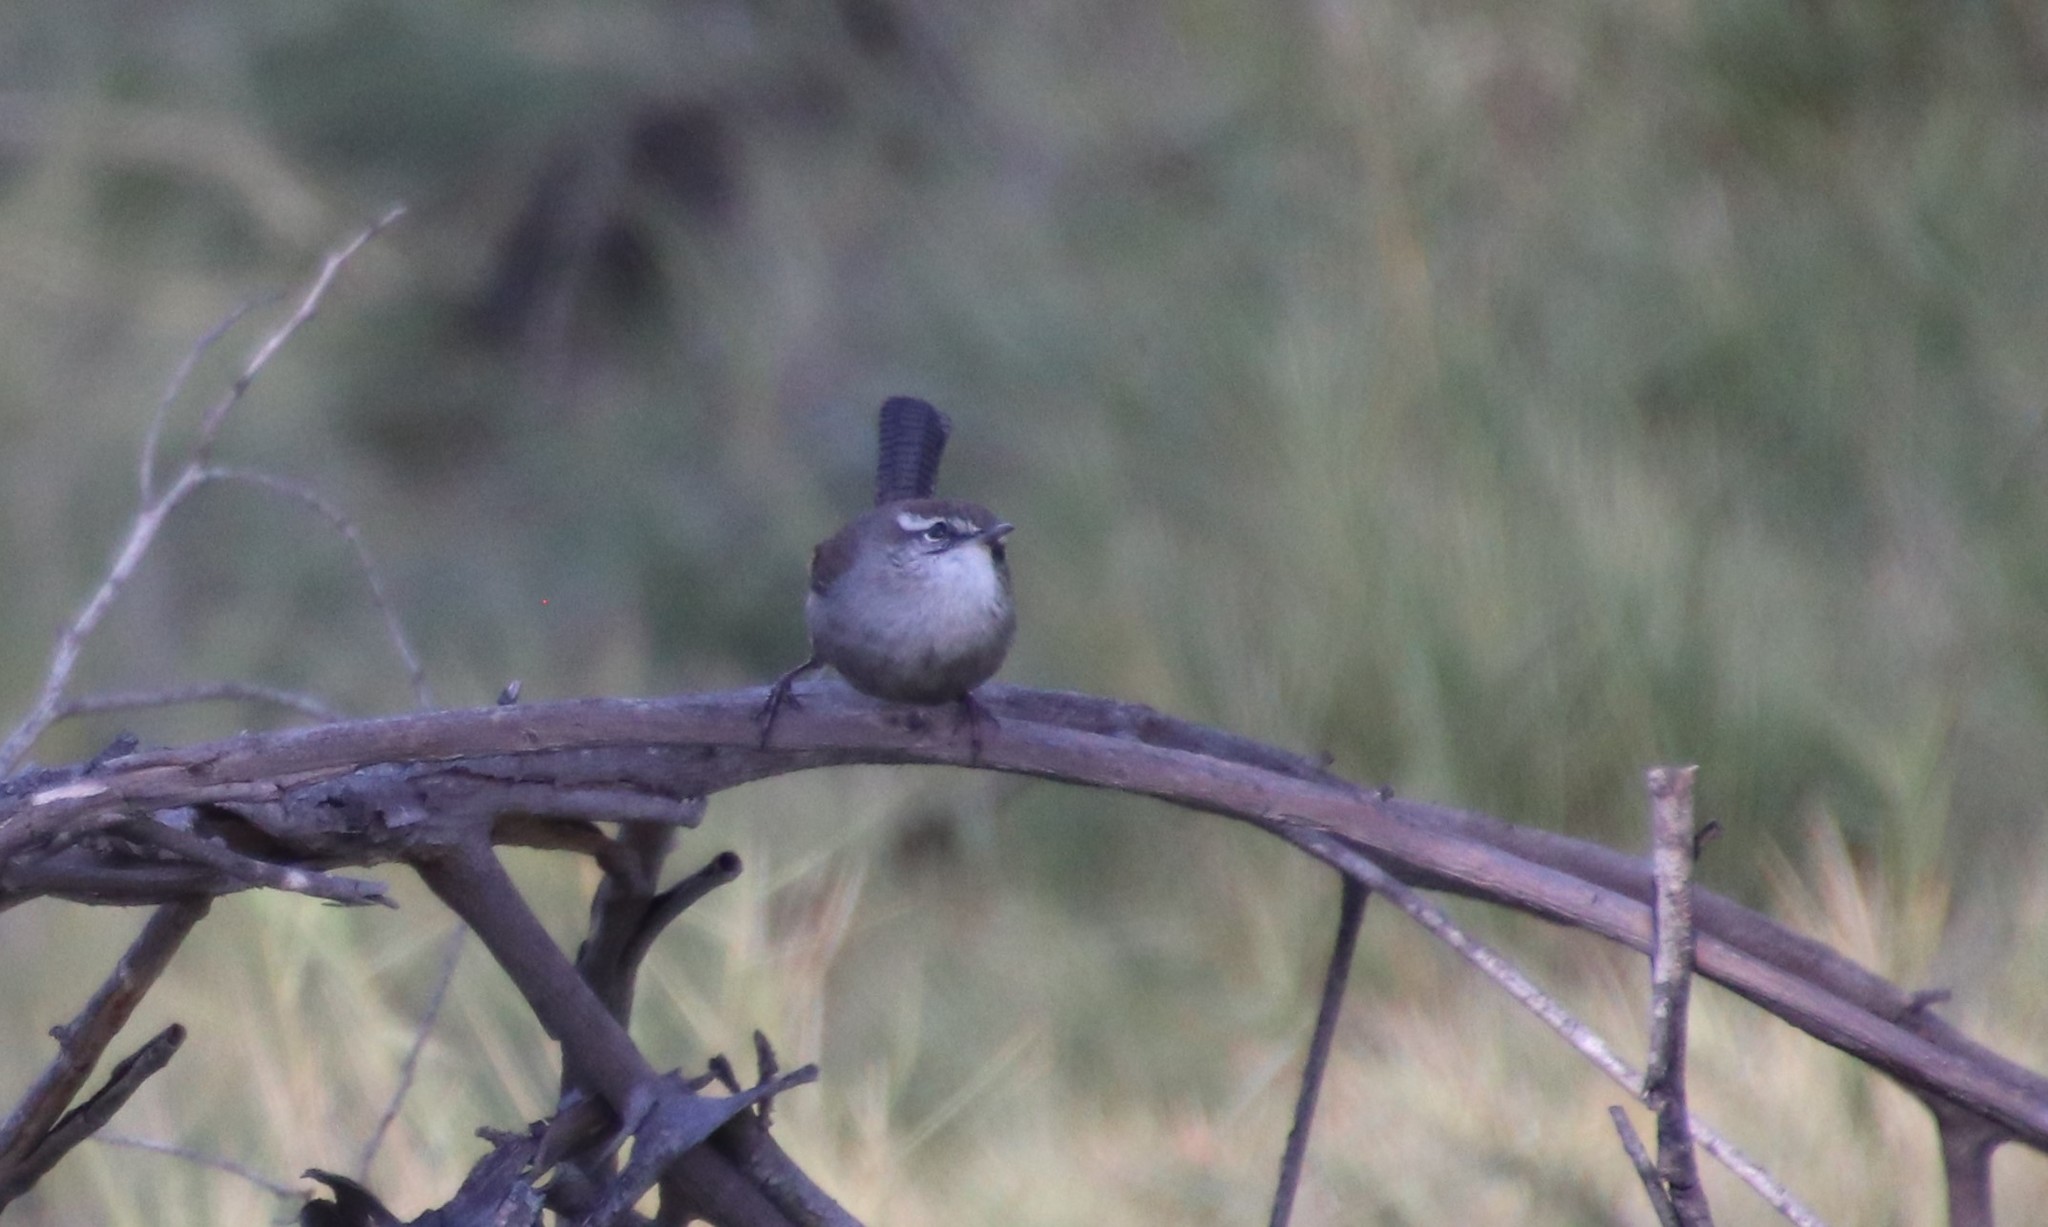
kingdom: Animalia
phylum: Chordata
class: Aves
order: Passeriformes
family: Troglodytidae
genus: Thryomanes
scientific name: Thryomanes bewickii
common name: Bewick's wren
